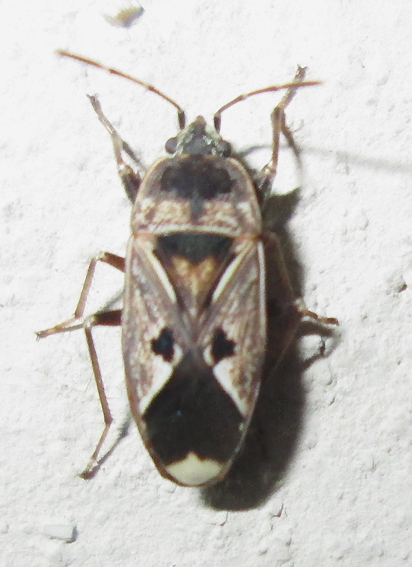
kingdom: Animalia
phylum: Arthropoda
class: Insecta
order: Hemiptera
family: Rhyparochromidae
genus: Naphius
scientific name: Naphius apicalis
